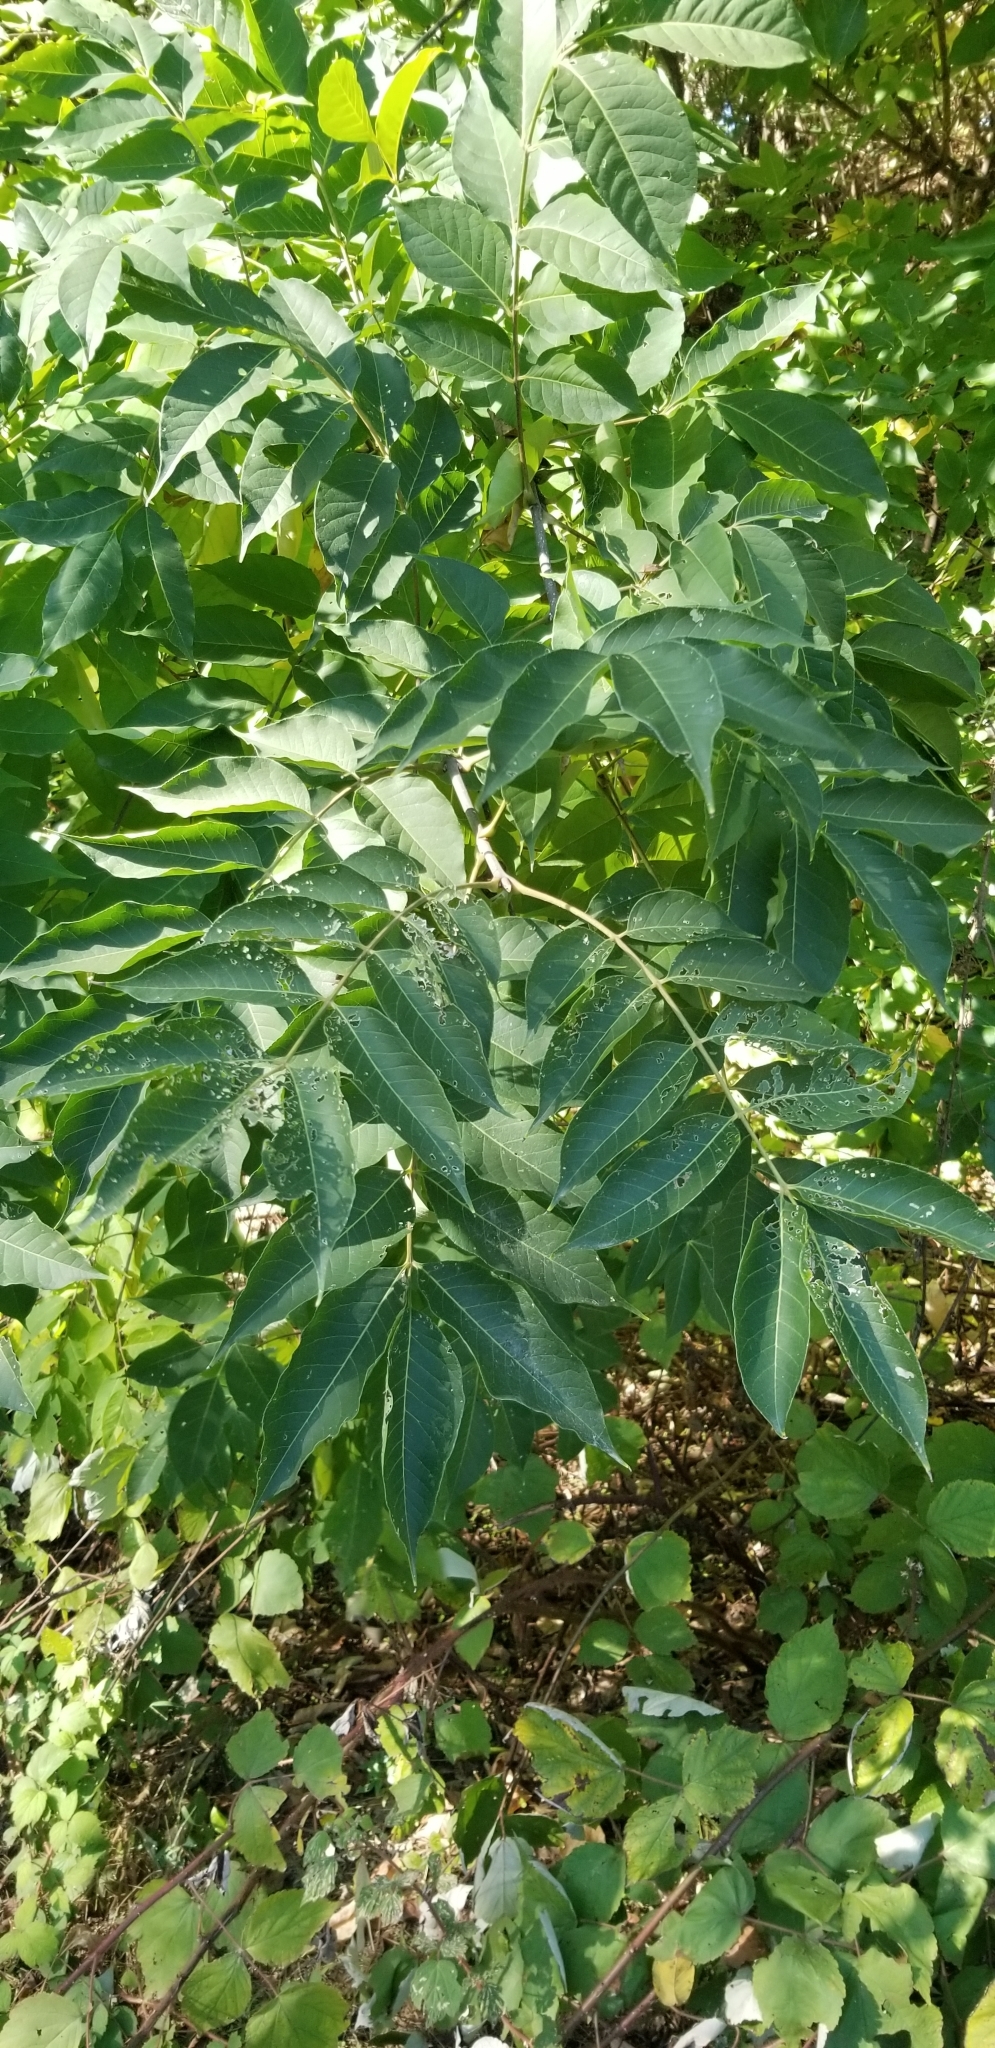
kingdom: Plantae
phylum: Tracheophyta
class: Magnoliopsida
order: Sapindales
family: Rutaceae
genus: Tetradium
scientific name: Tetradium daniellii
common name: Bee-bee tree
